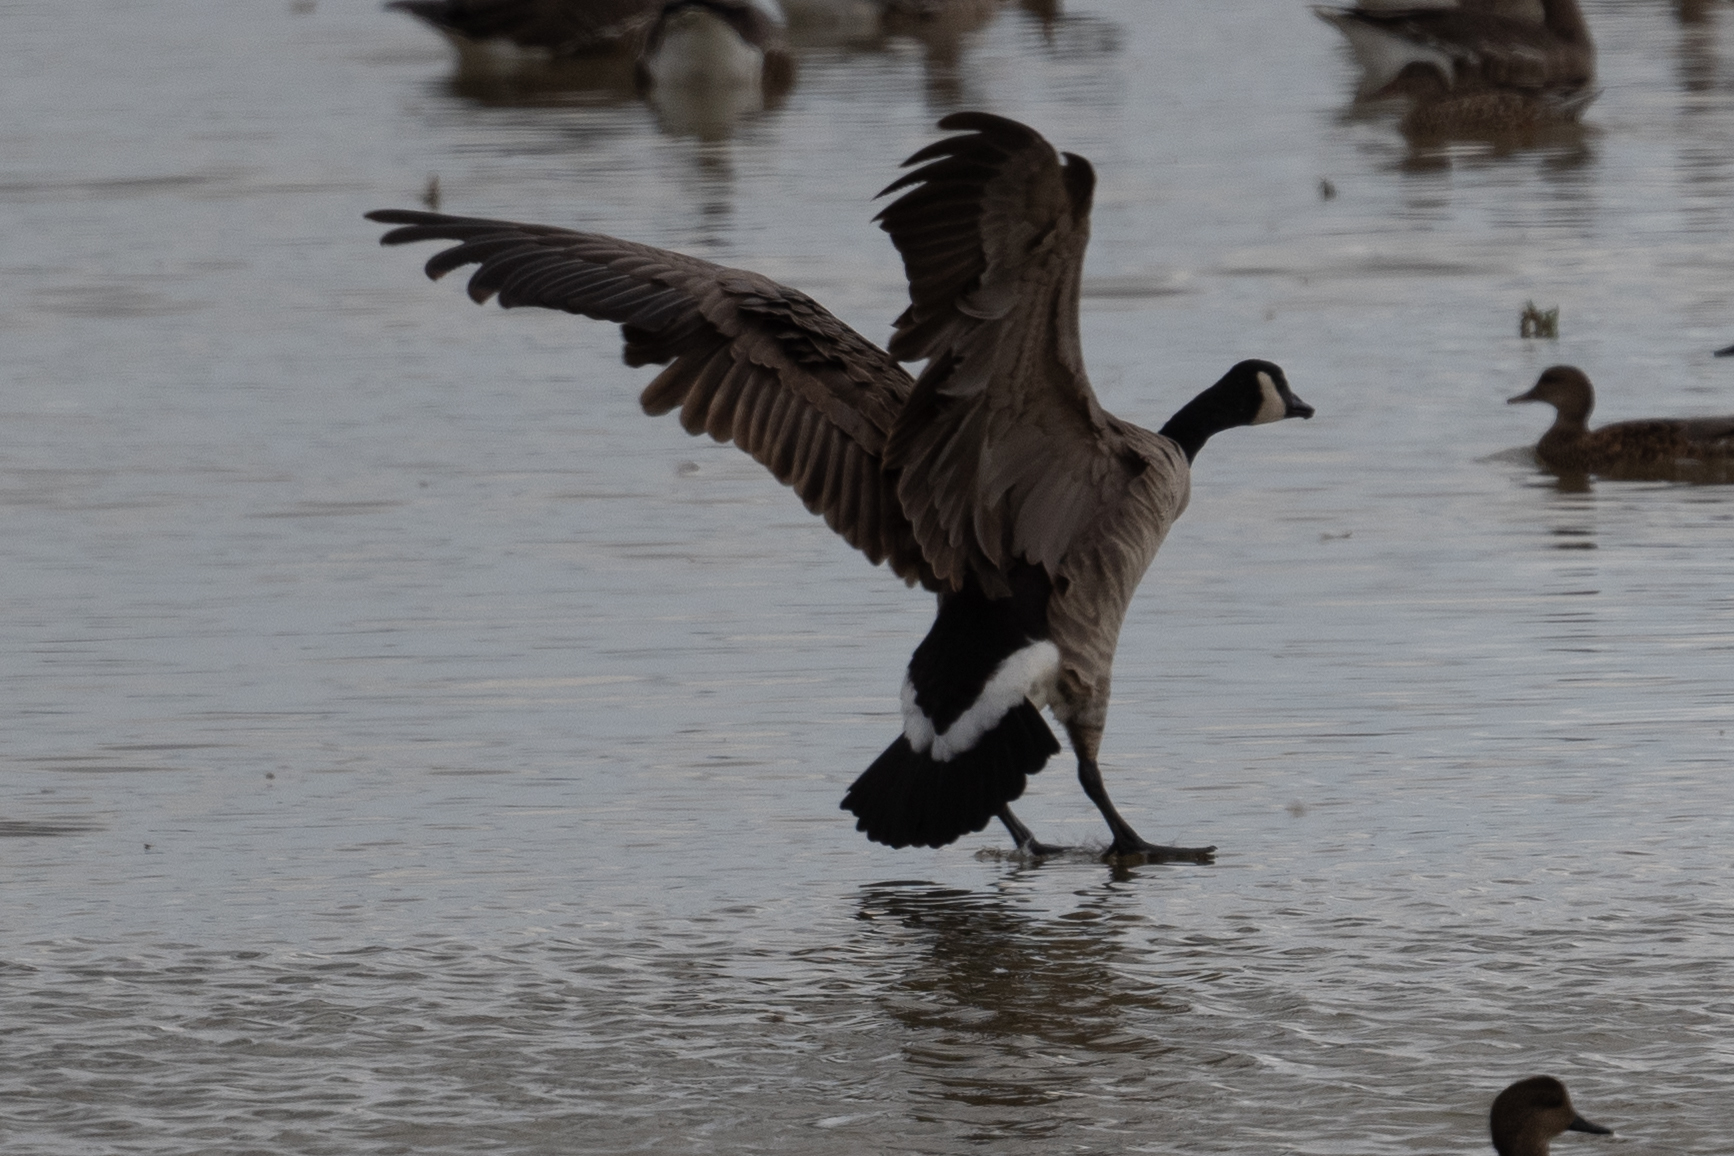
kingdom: Animalia
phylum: Chordata
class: Aves
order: Anseriformes
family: Anatidae
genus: Branta
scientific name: Branta canadensis
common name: Canada goose
